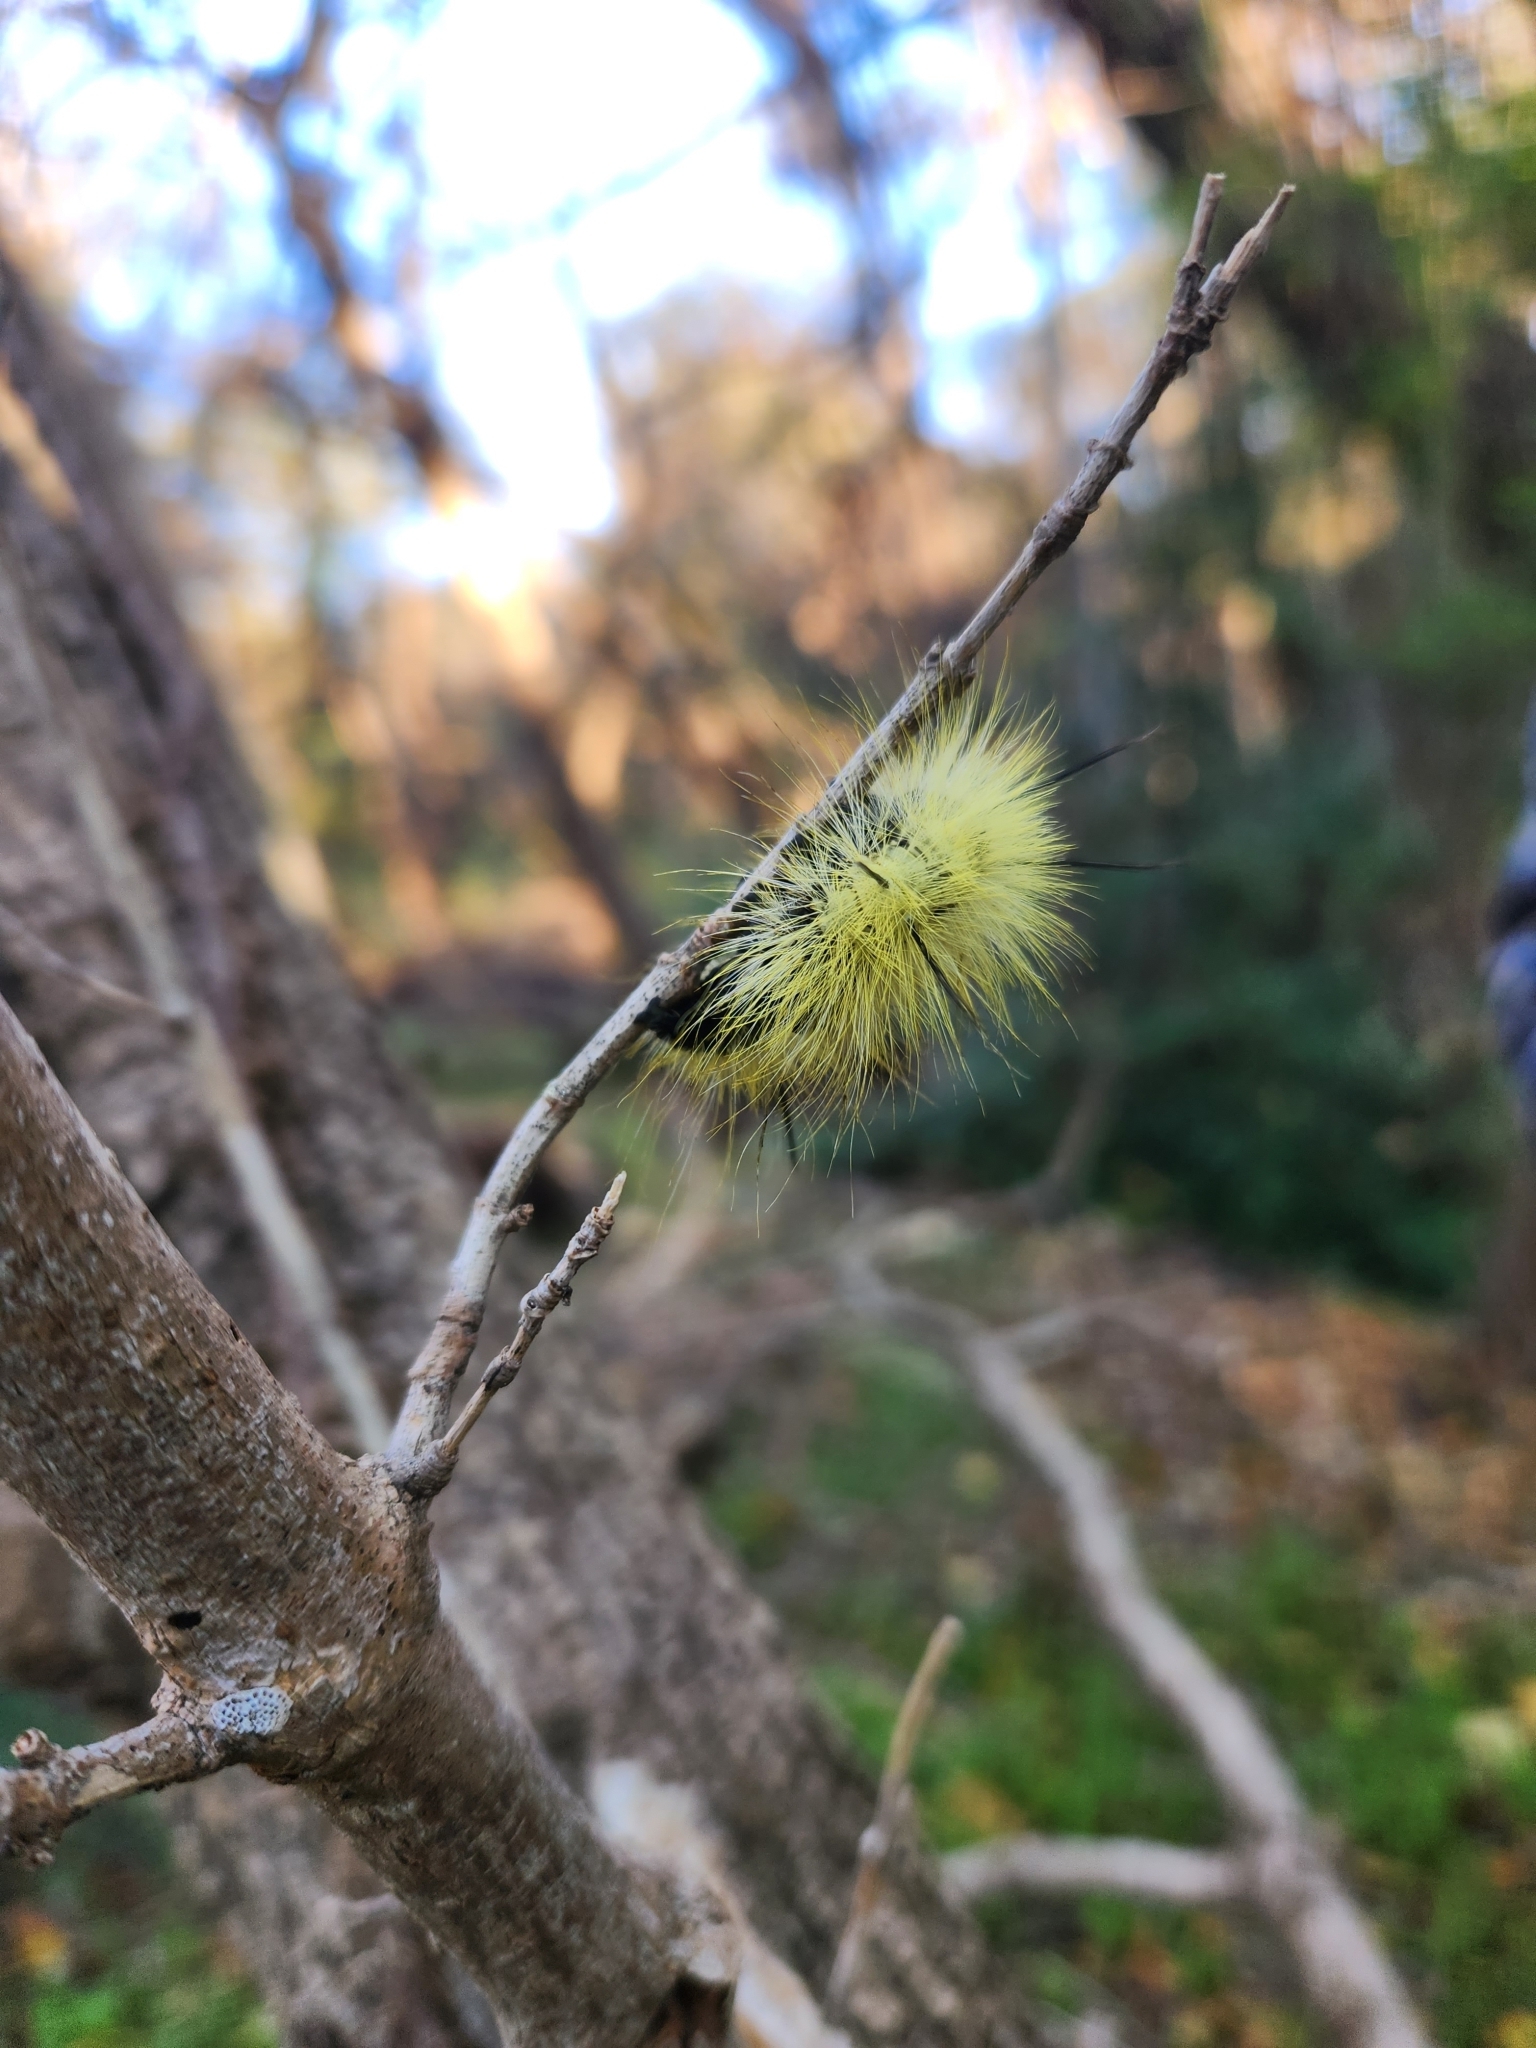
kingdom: Animalia
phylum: Arthropoda
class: Insecta
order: Lepidoptera
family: Noctuidae
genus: Acronicta
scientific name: Acronicta americana
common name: American dagger
